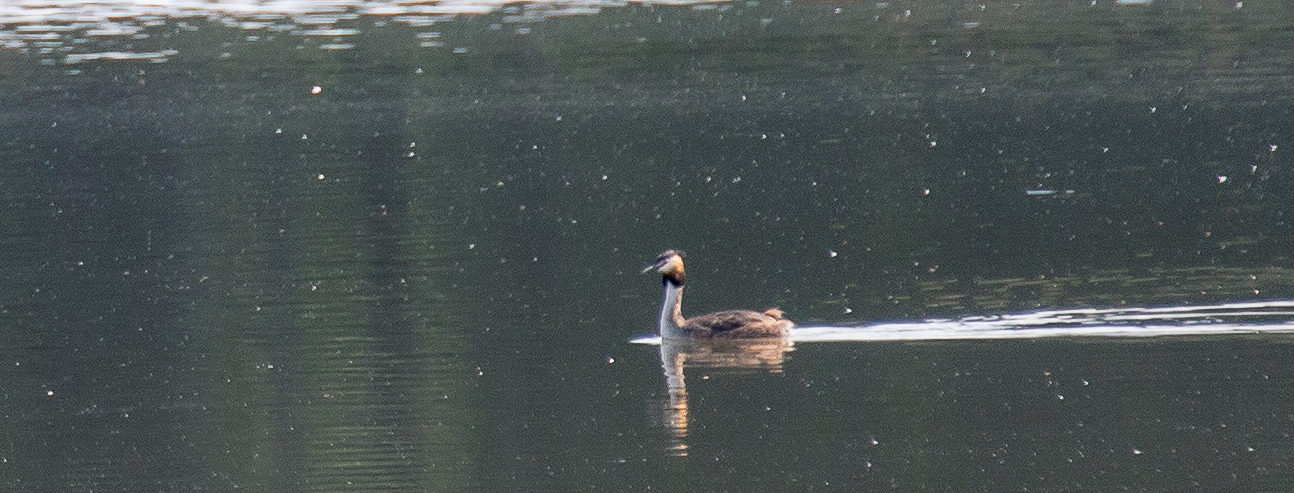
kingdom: Animalia
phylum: Chordata
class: Aves
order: Podicipediformes
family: Podicipedidae
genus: Podiceps
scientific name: Podiceps cristatus
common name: Great crested grebe
